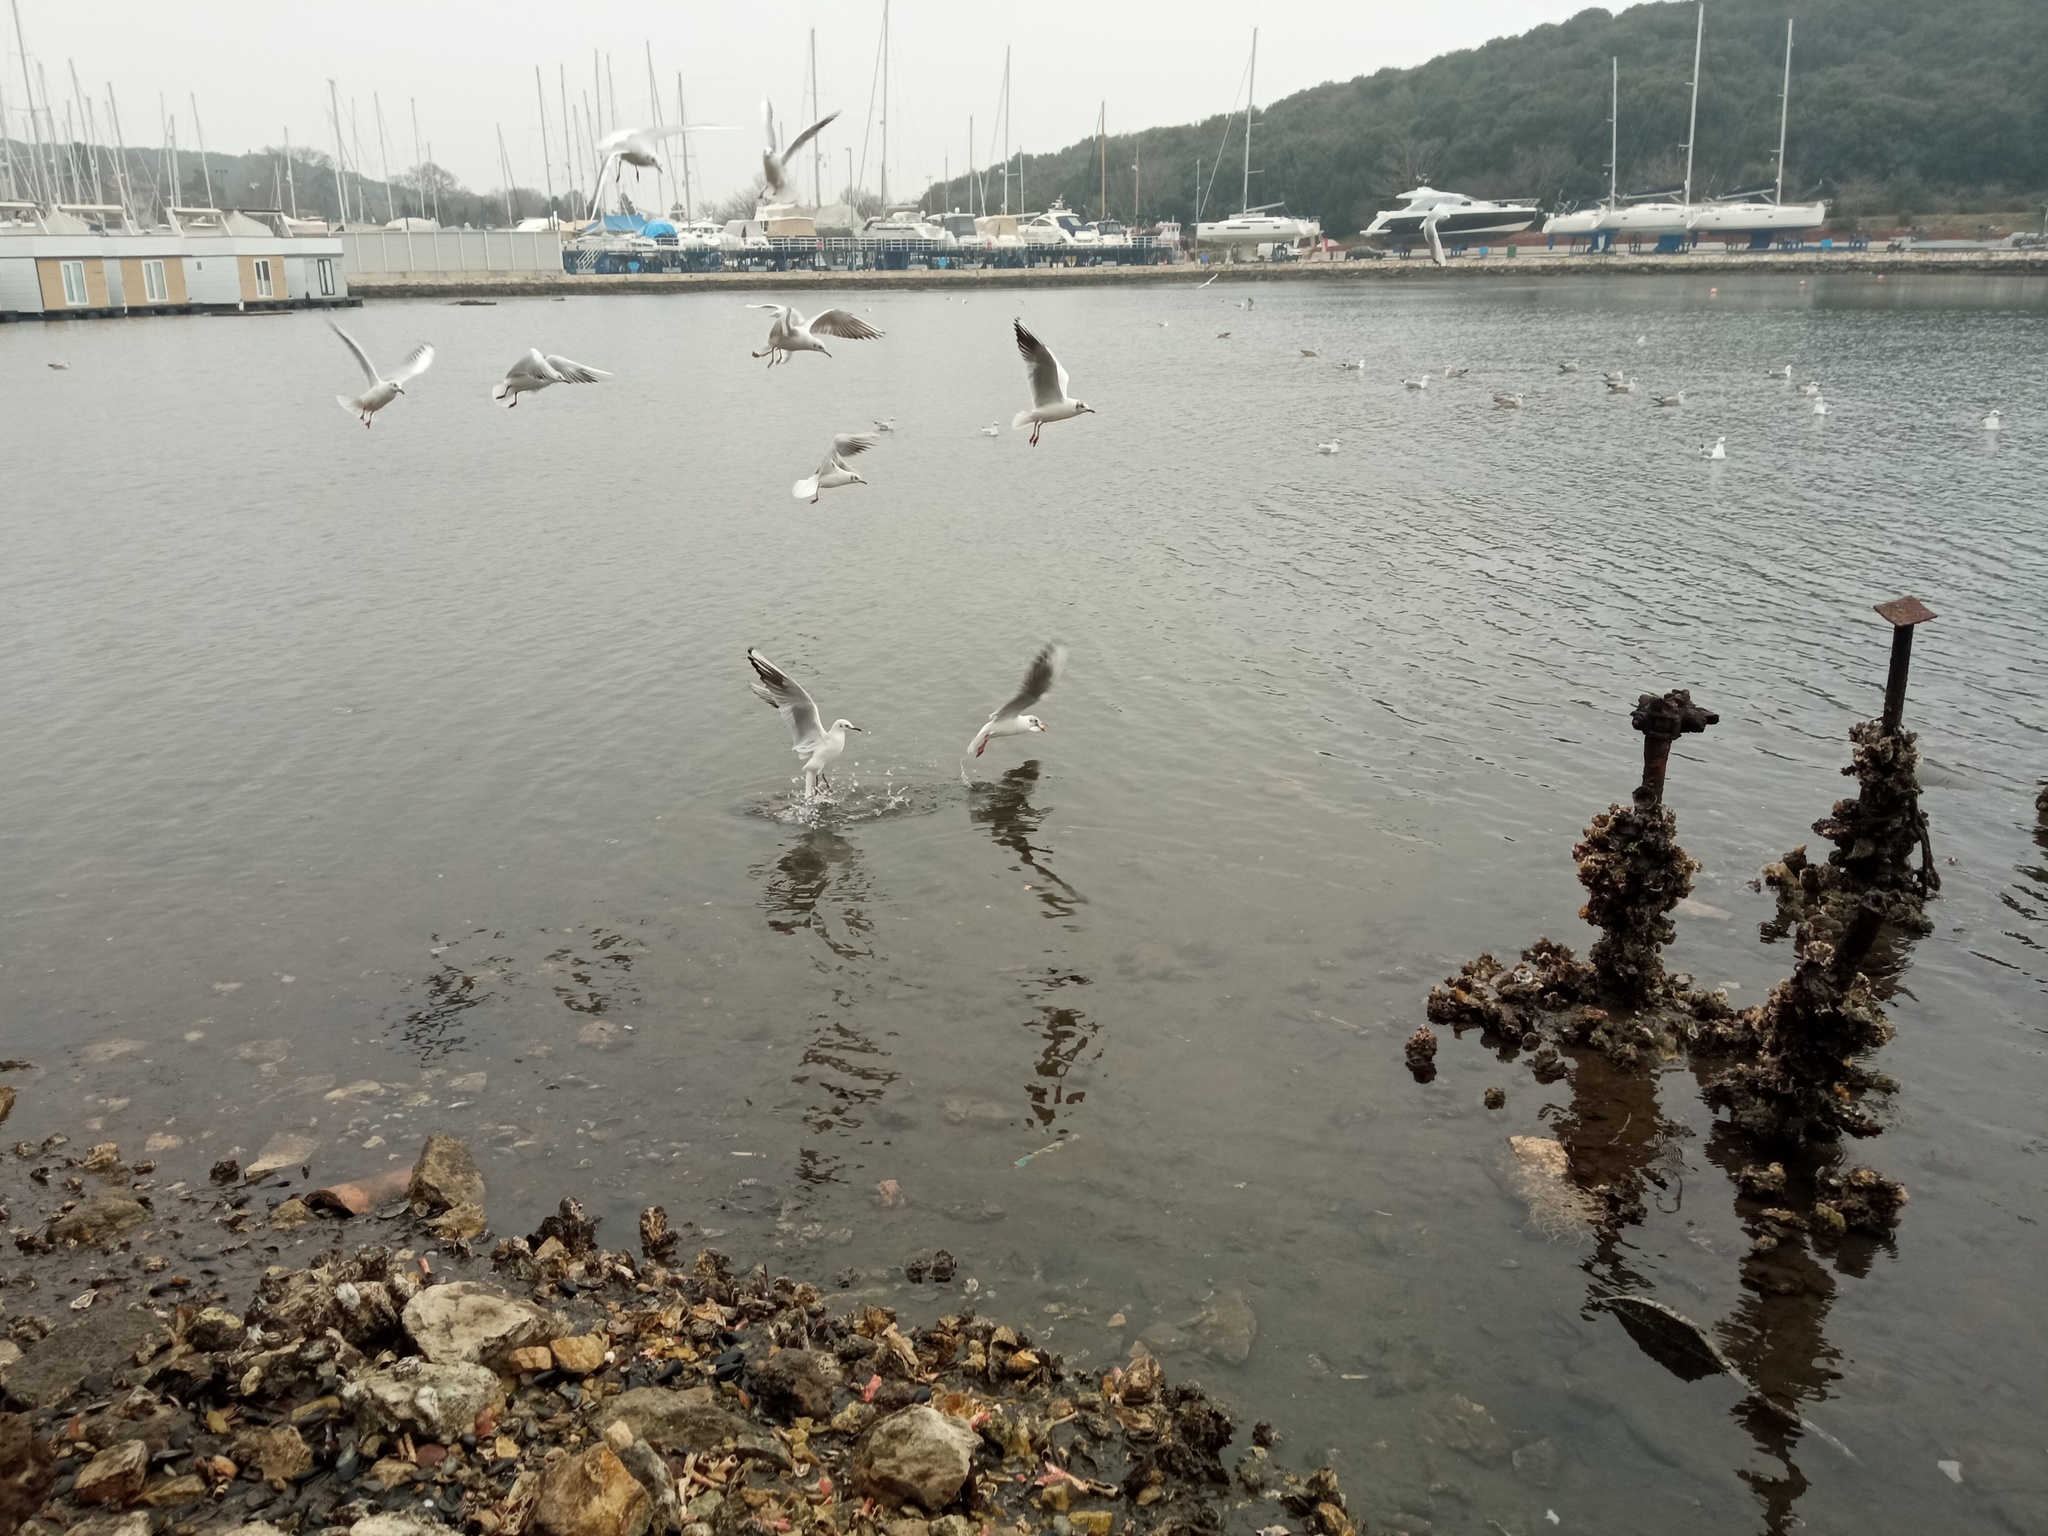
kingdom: Animalia
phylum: Chordata
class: Aves
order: Charadriiformes
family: Laridae
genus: Chroicocephalus
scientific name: Chroicocephalus ridibundus
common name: Black-headed gull
